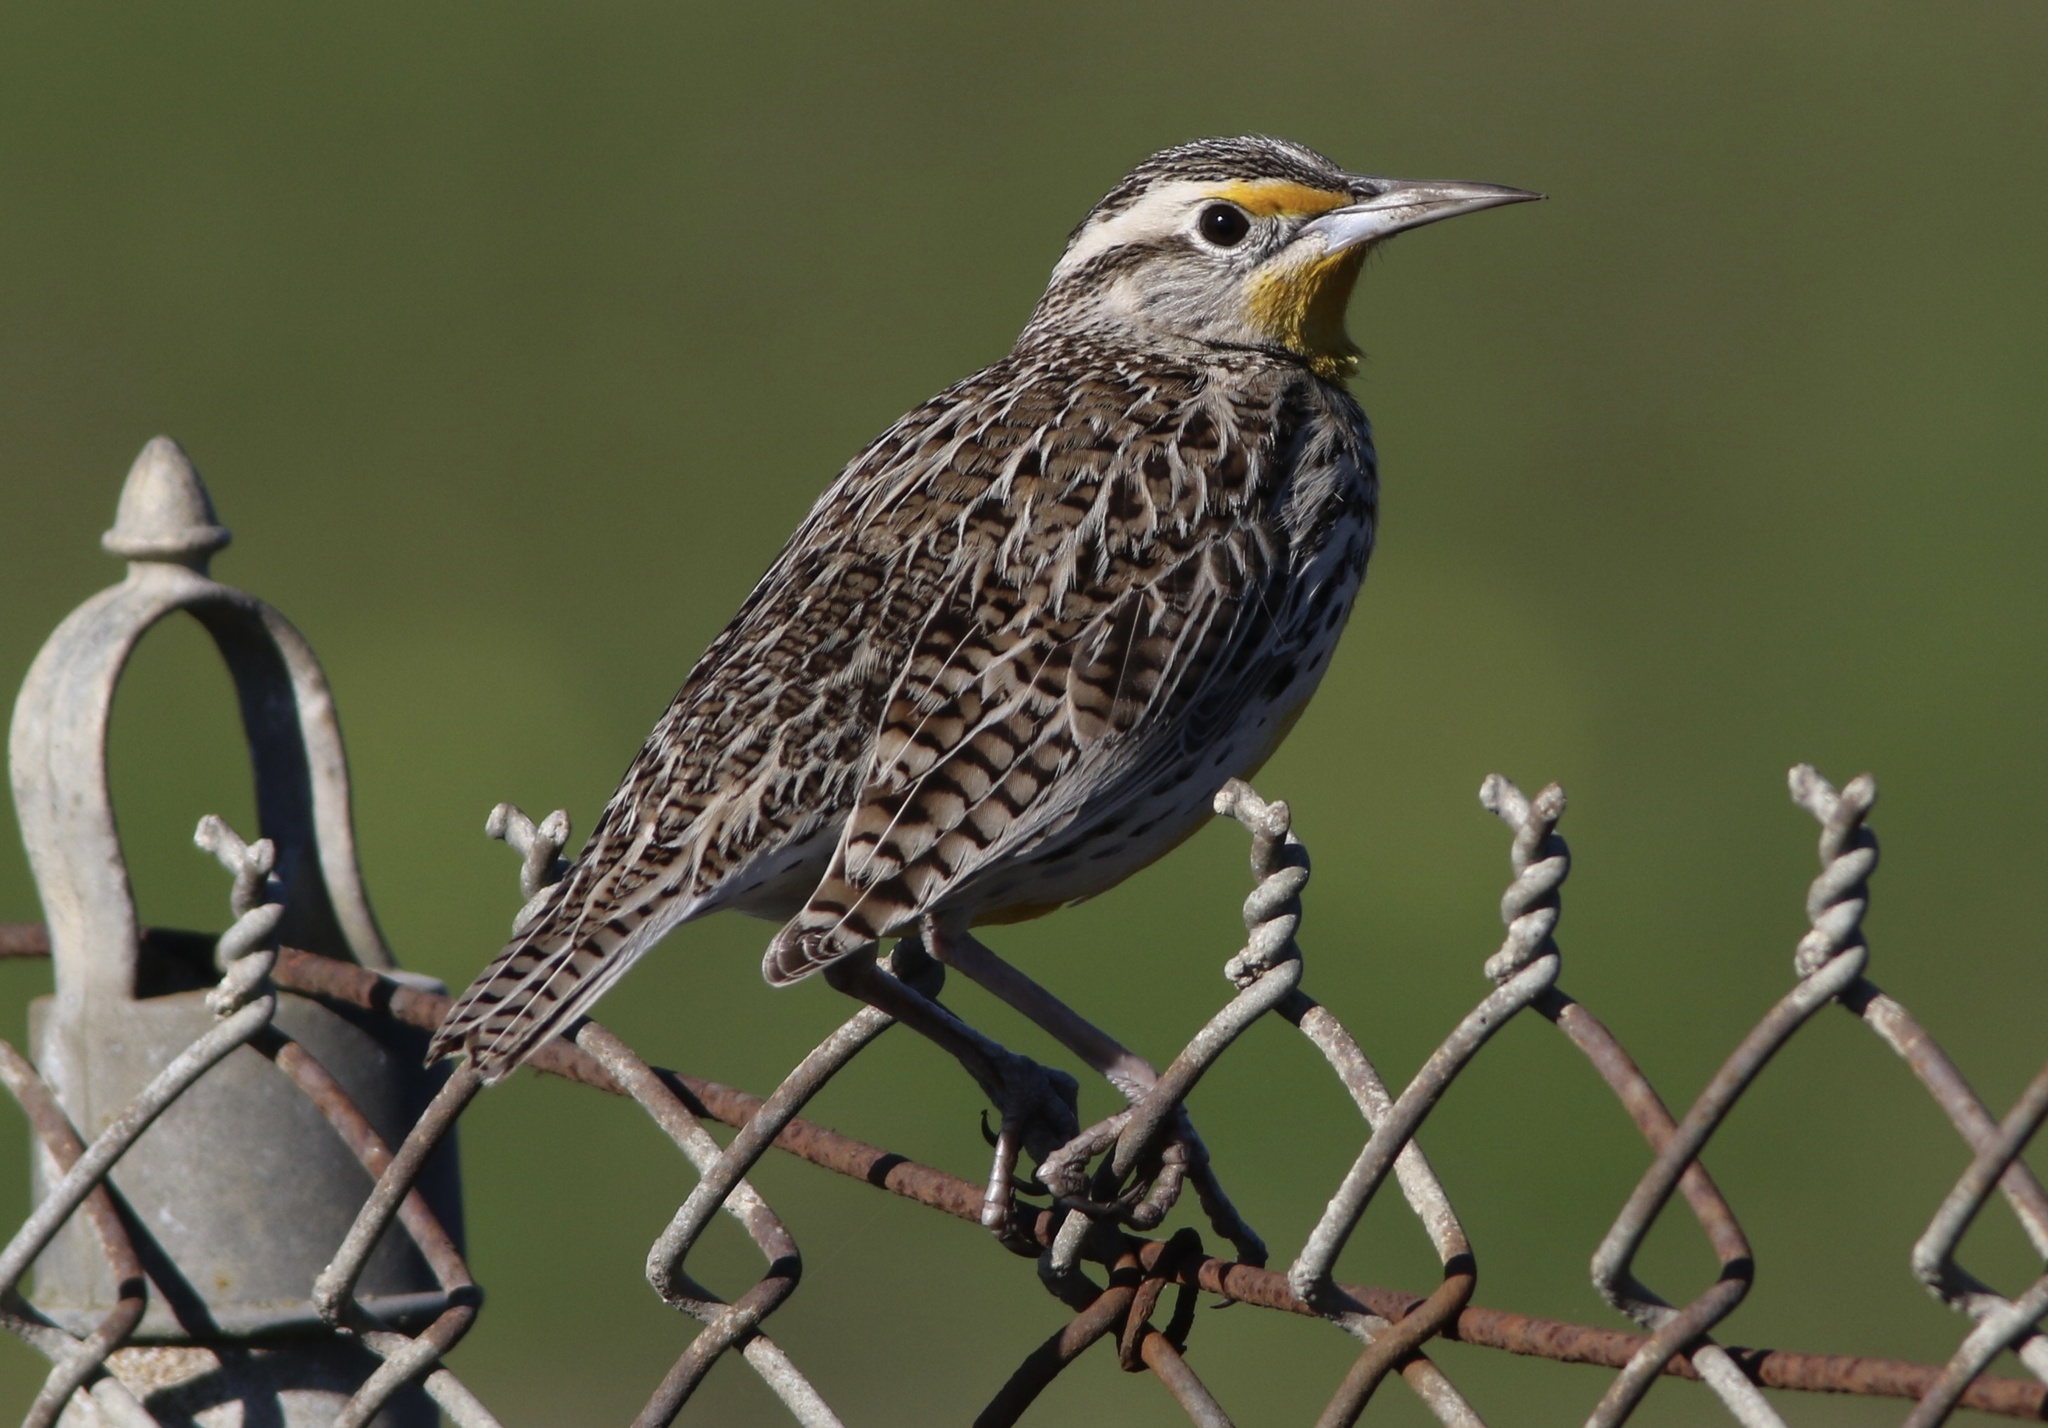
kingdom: Animalia
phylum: Chordata
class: Aves
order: Passeriformes
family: Icteridae
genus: Sturnella
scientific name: Sturnella neglecta
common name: Western meadowlark
